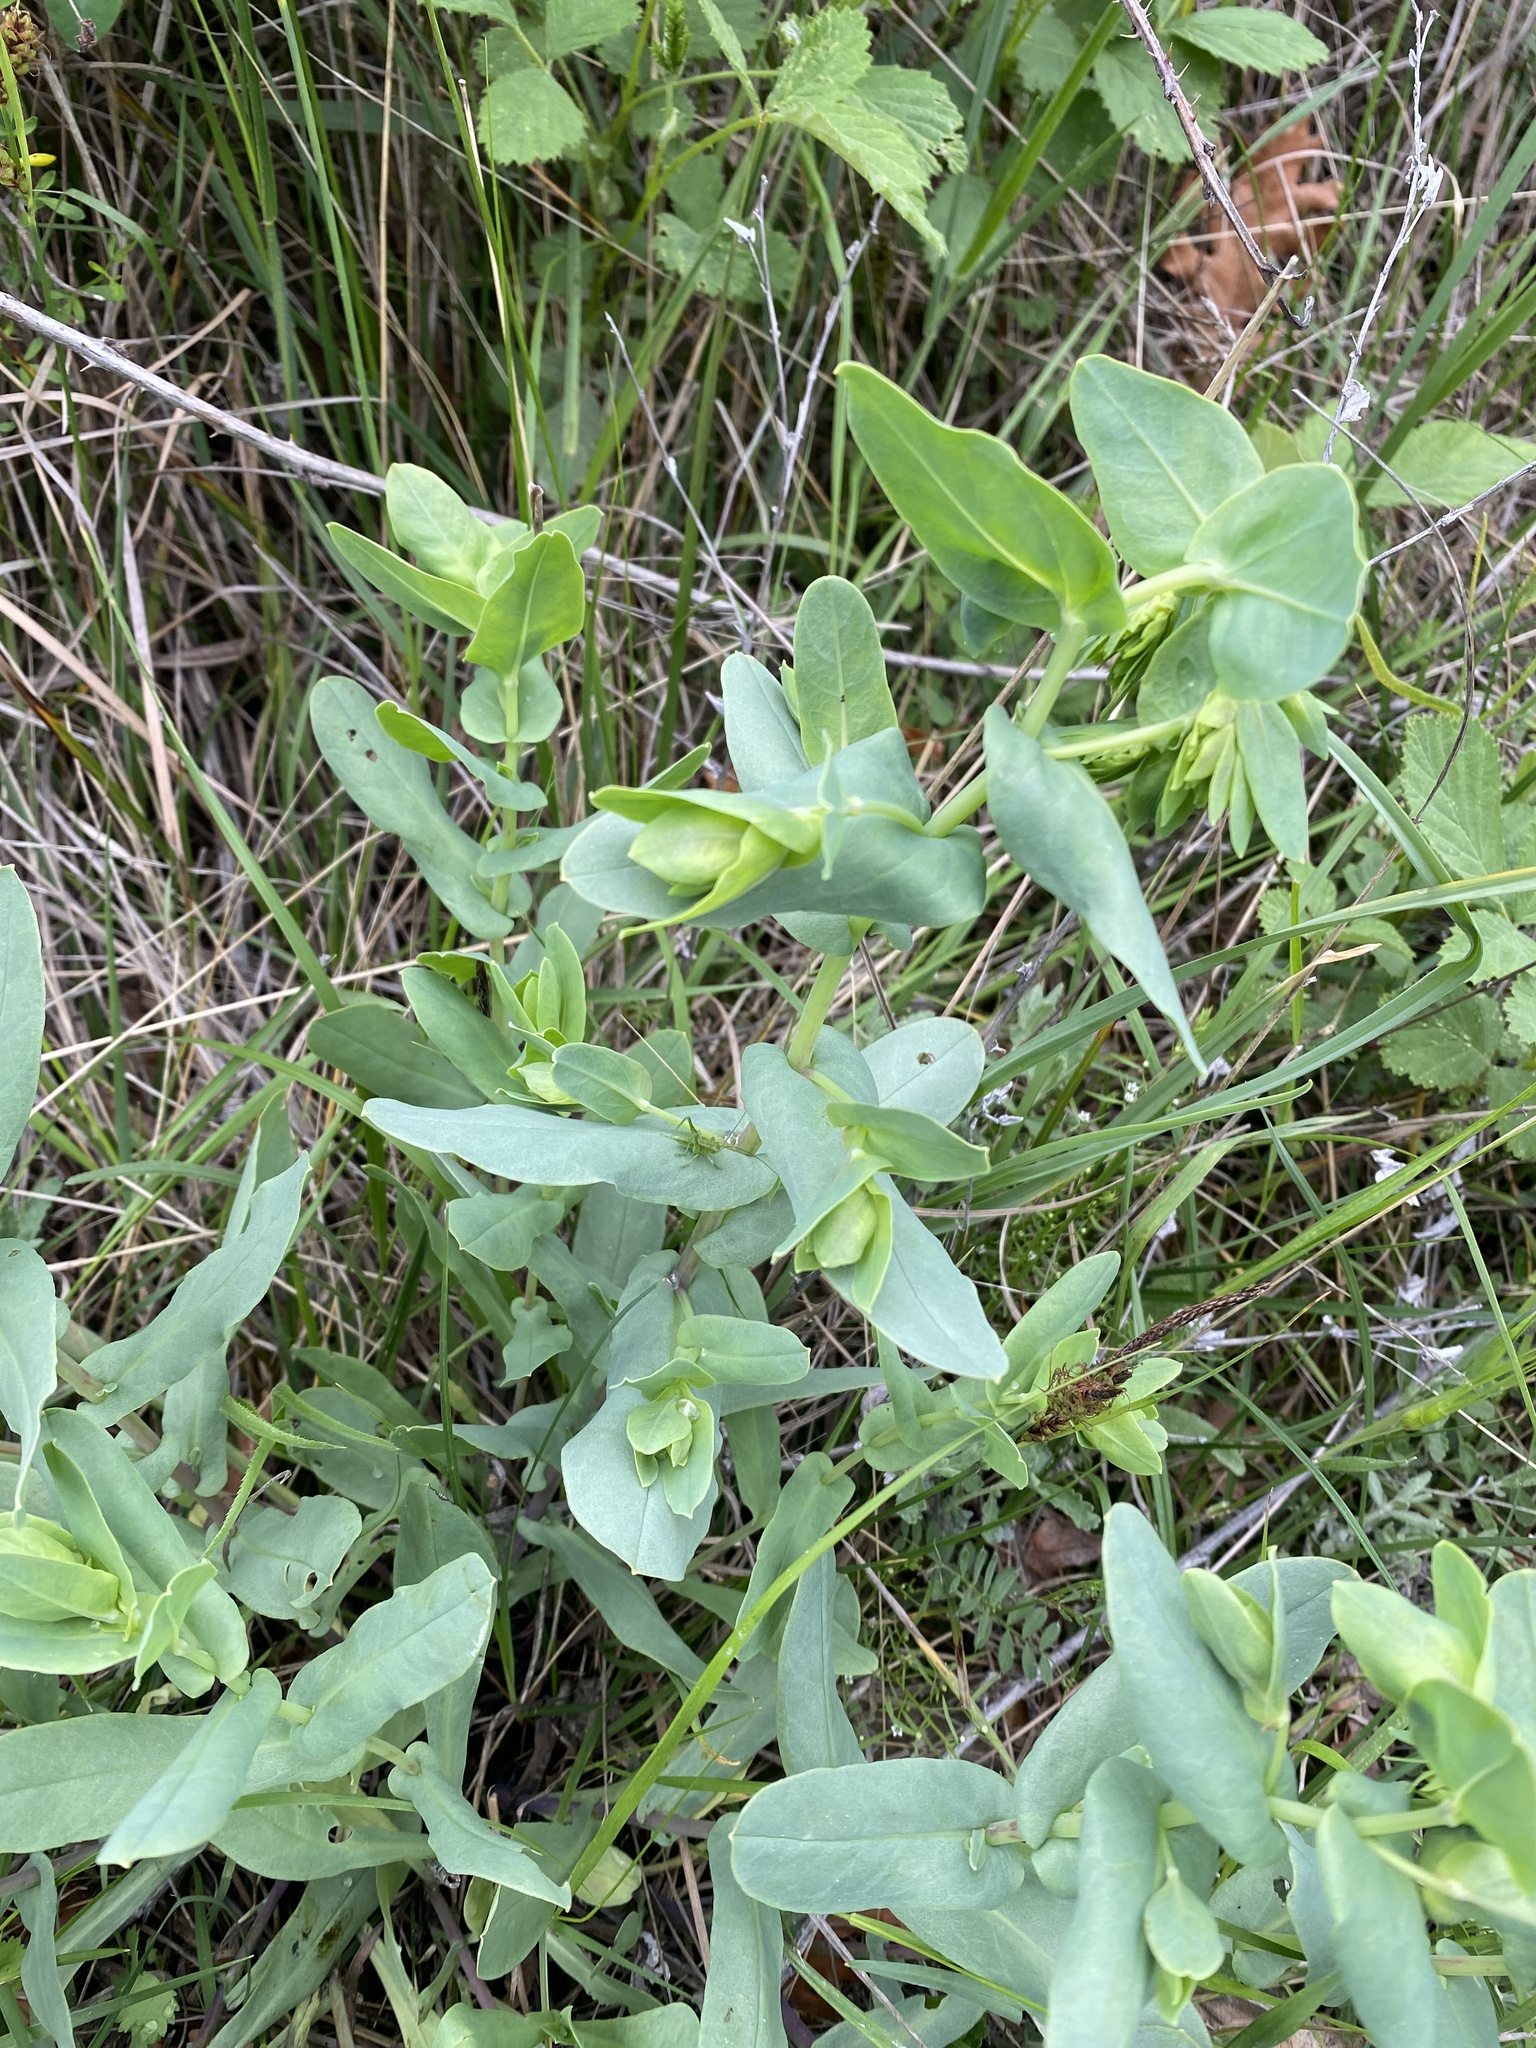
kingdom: Plantae
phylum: Tracheophyta
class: Magnoliopsida
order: Boraginales
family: Boraginaceae
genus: Cerinthe
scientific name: Cerinthe minor
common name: Lesser honeywort
